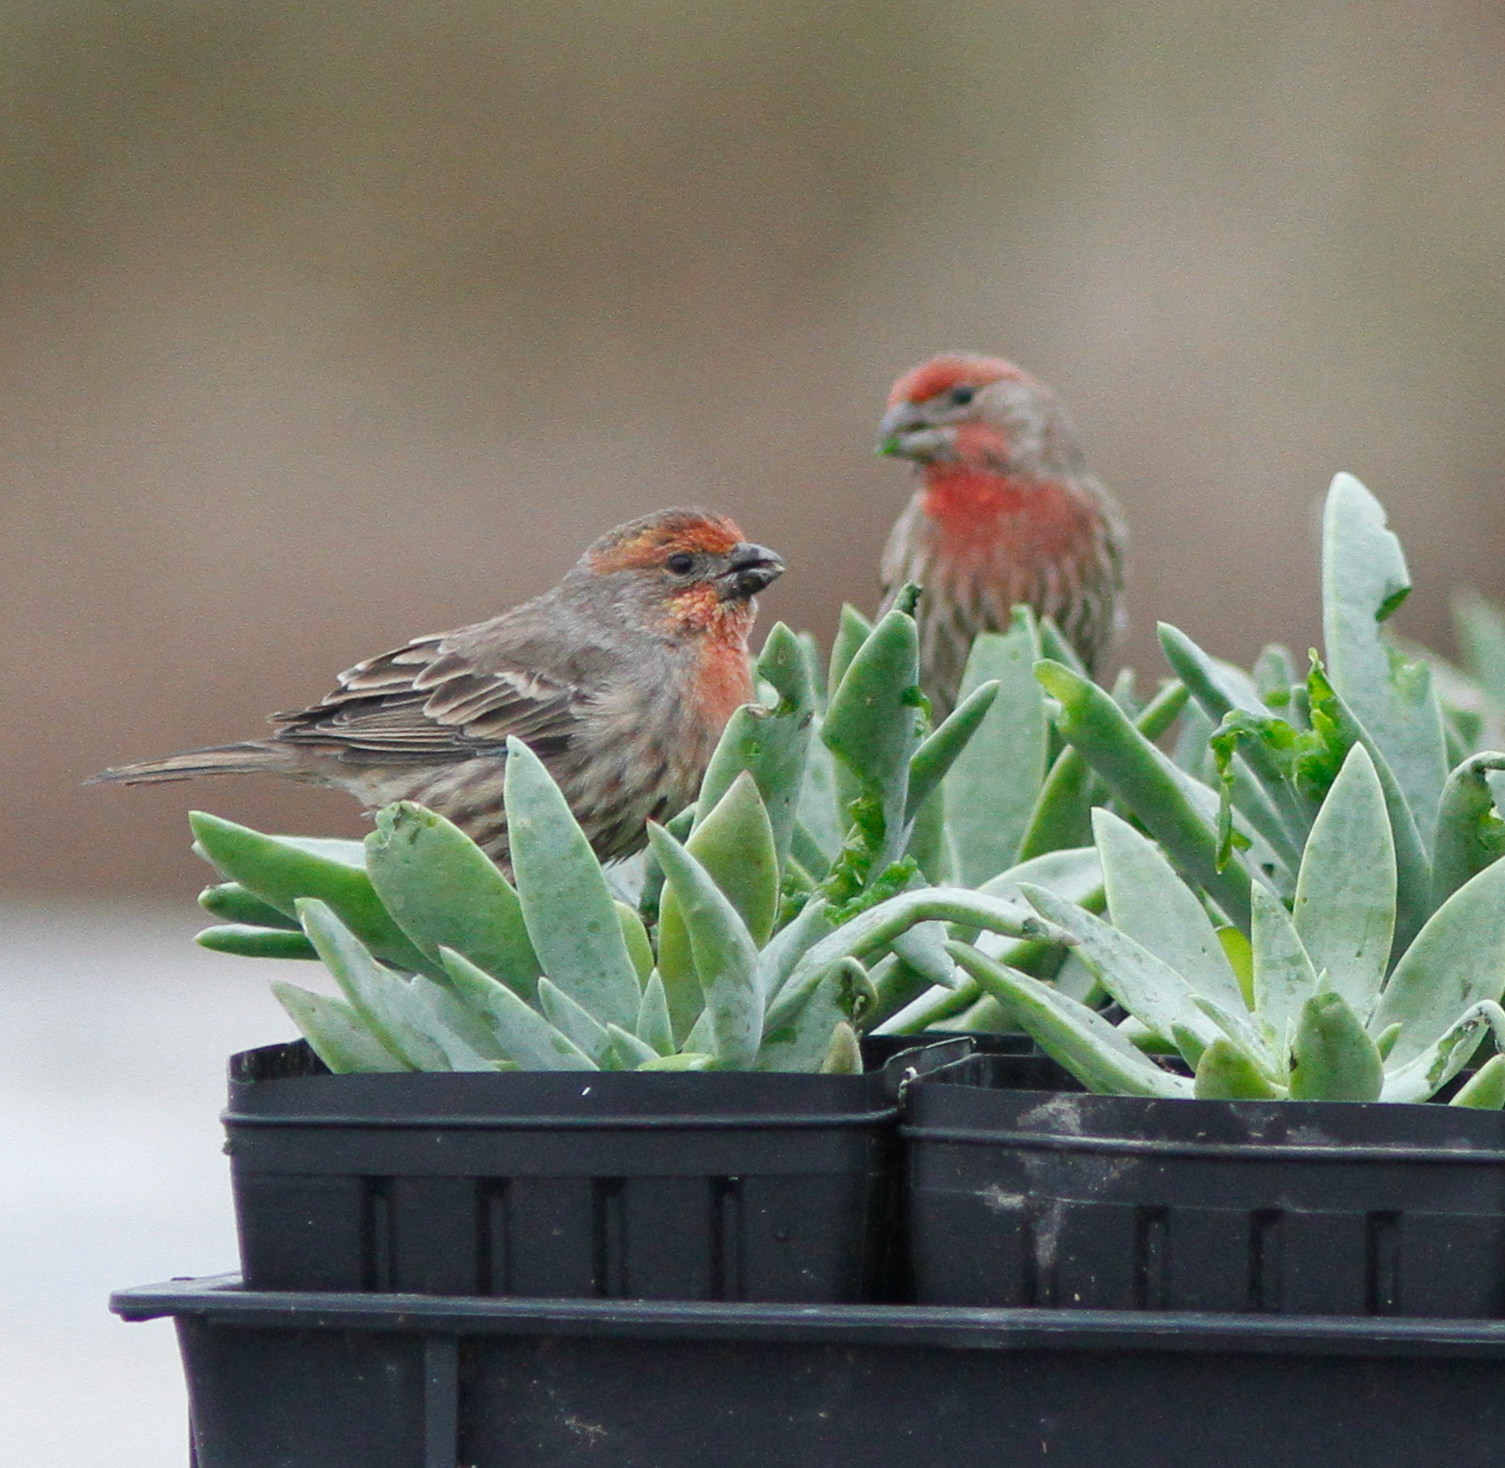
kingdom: Animalia
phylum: Chordata
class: Aves
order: Passeriformes
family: Fringillidae
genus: Haemorhous
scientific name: Haemorhous mexicanus
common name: House finch
